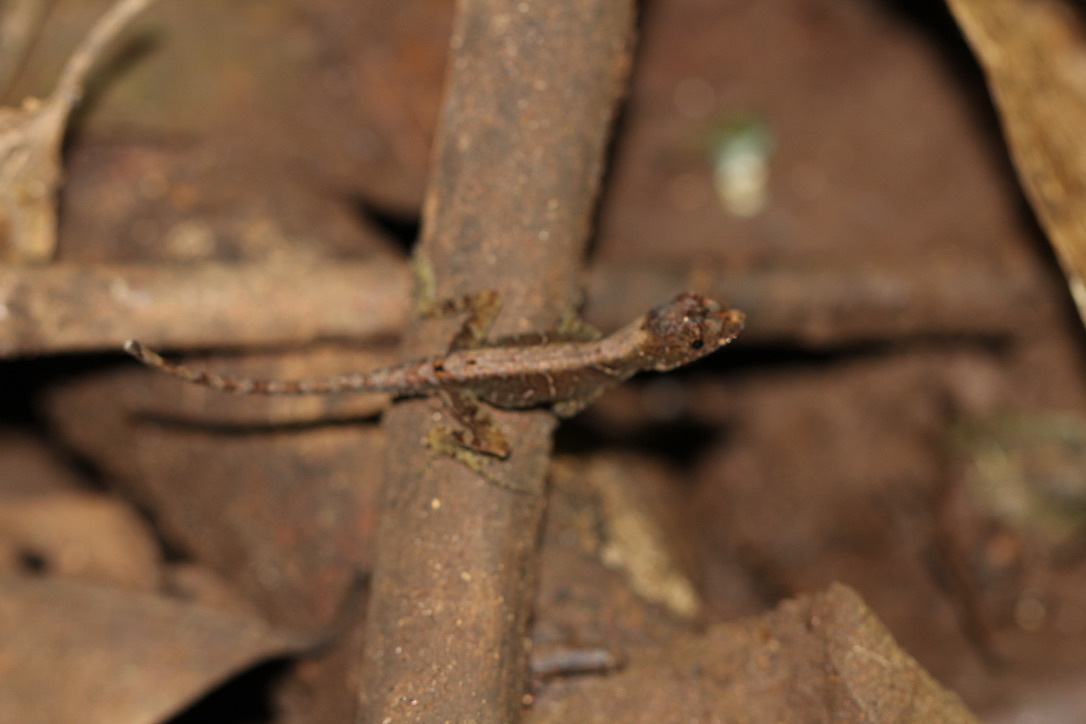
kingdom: Animalia
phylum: Chordata
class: Squamata
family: Dactyloidae
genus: Anolis
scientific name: Anolis humilis
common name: Humble anole
